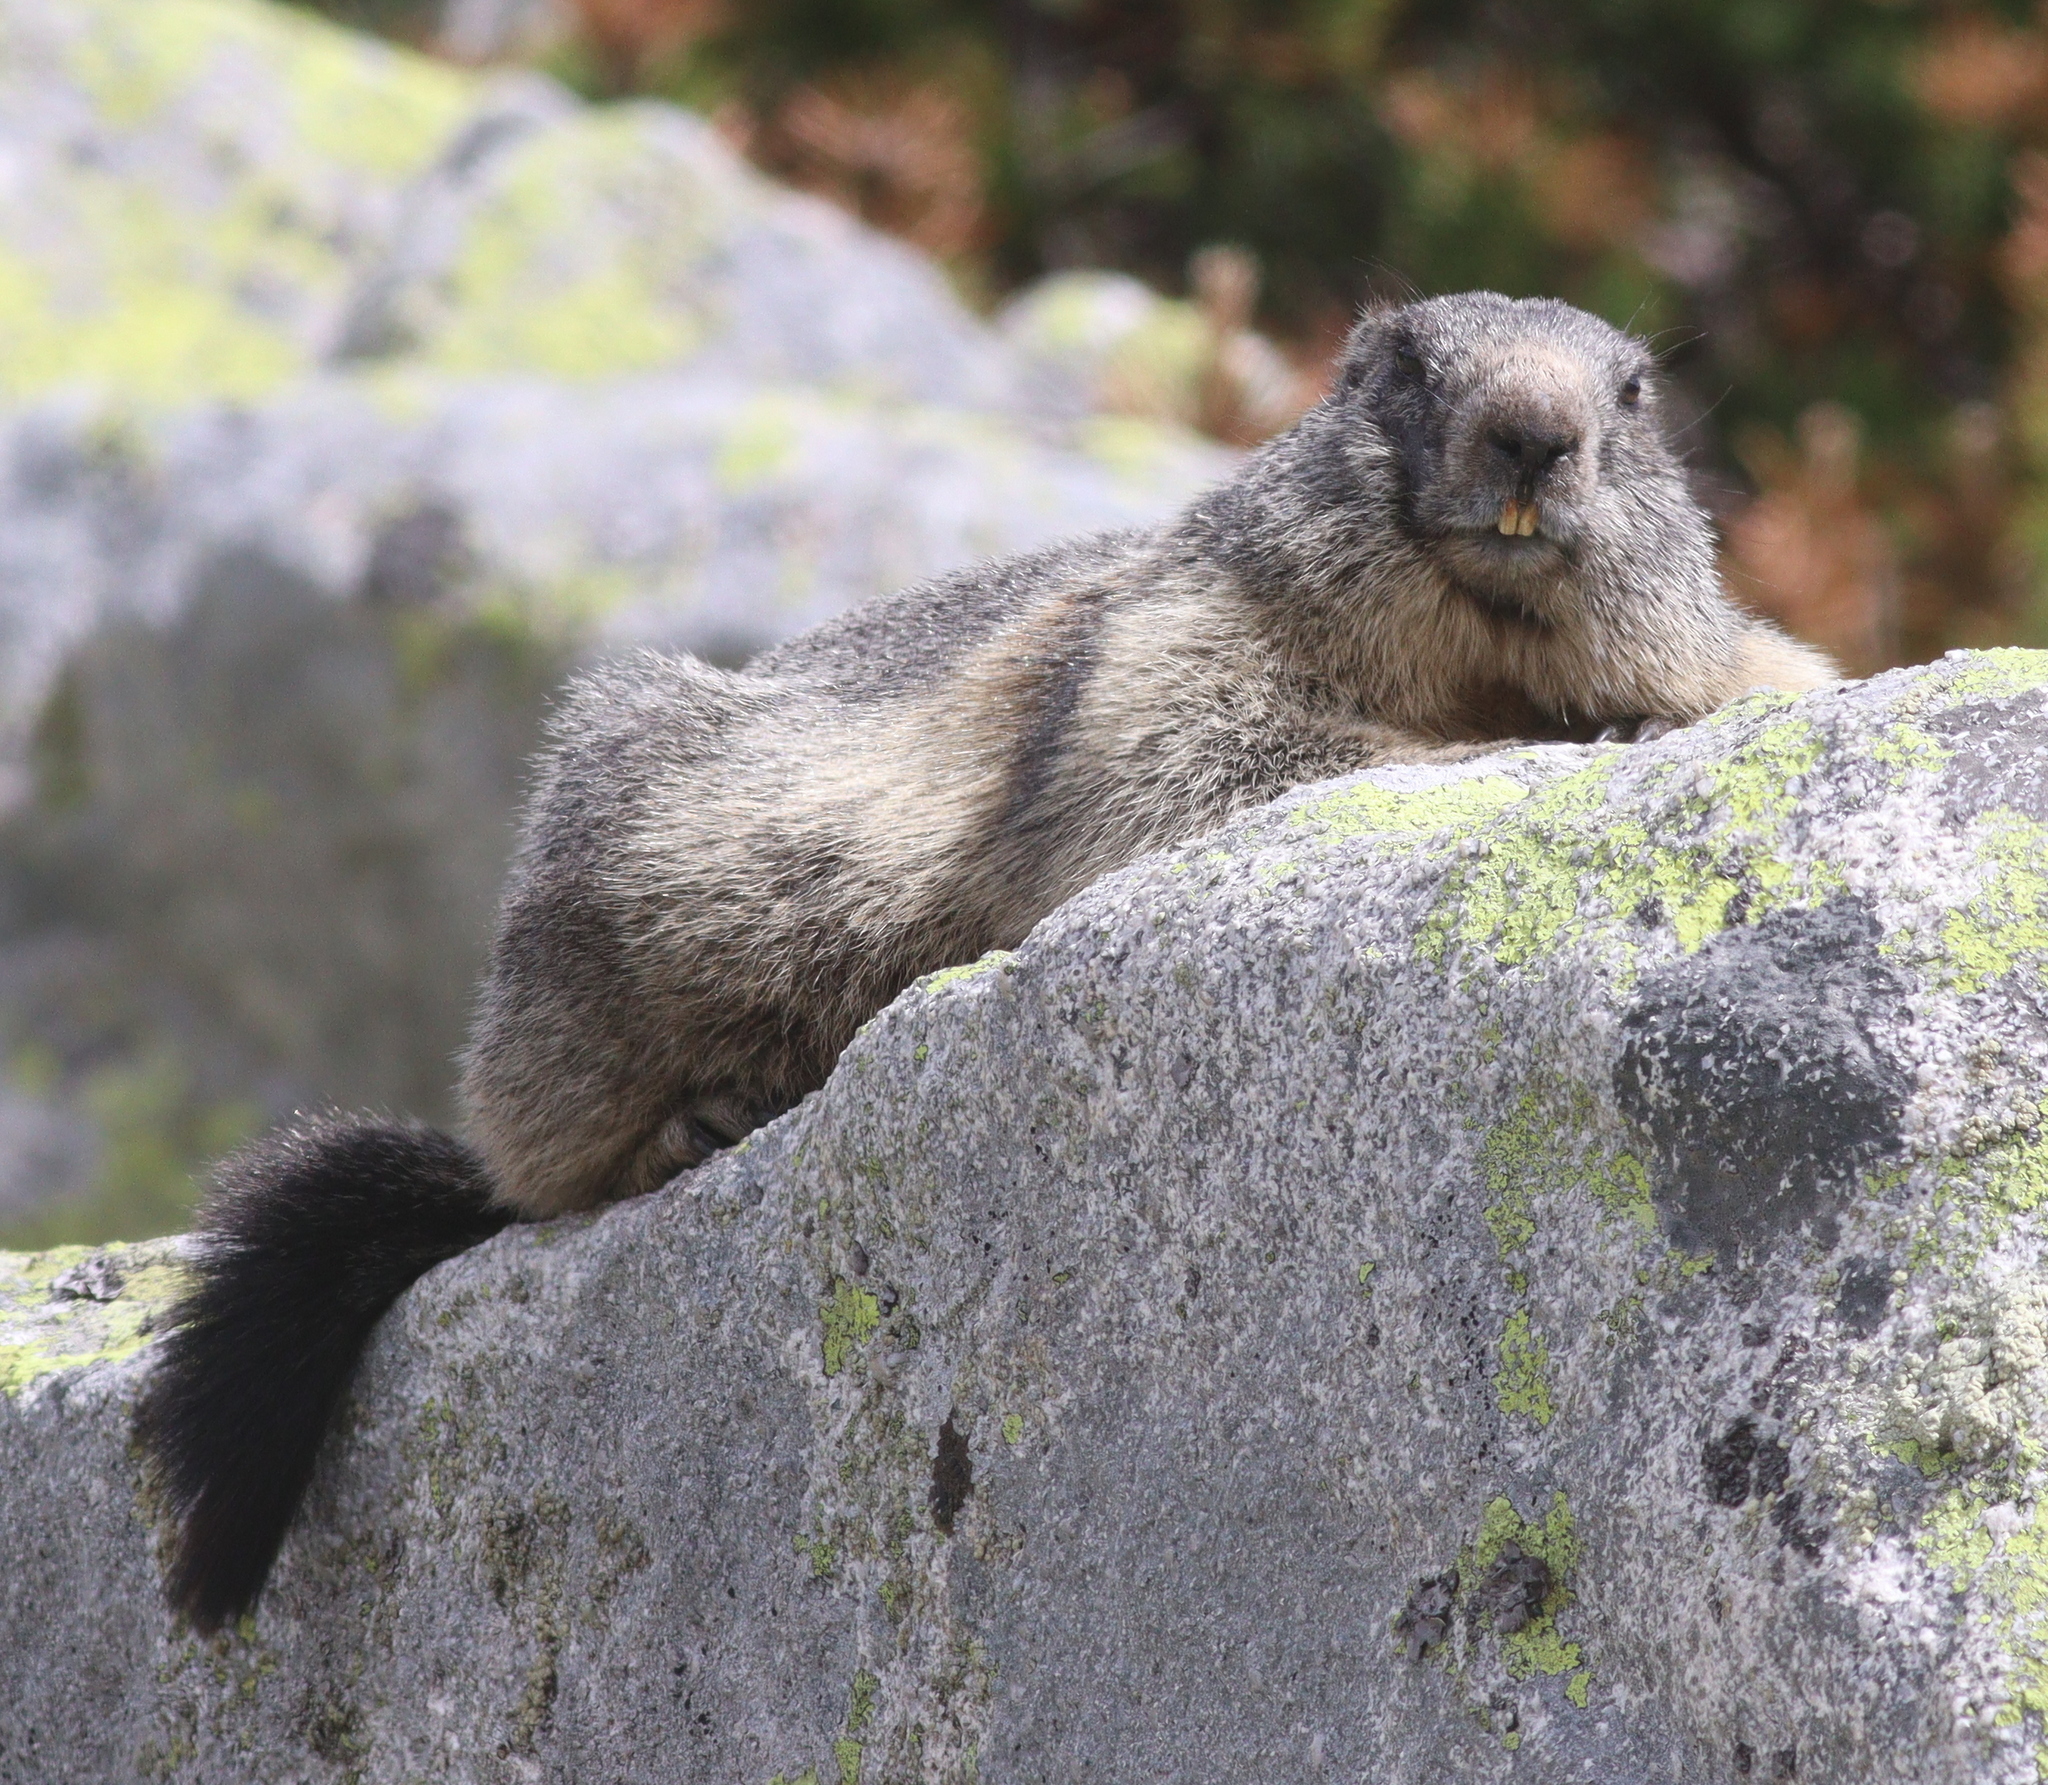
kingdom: Animalia
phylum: Chordata
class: Mammalia
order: Rodentia
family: Sciuridae
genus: Marmota
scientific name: Marmota marmota
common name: Alpine marmot
